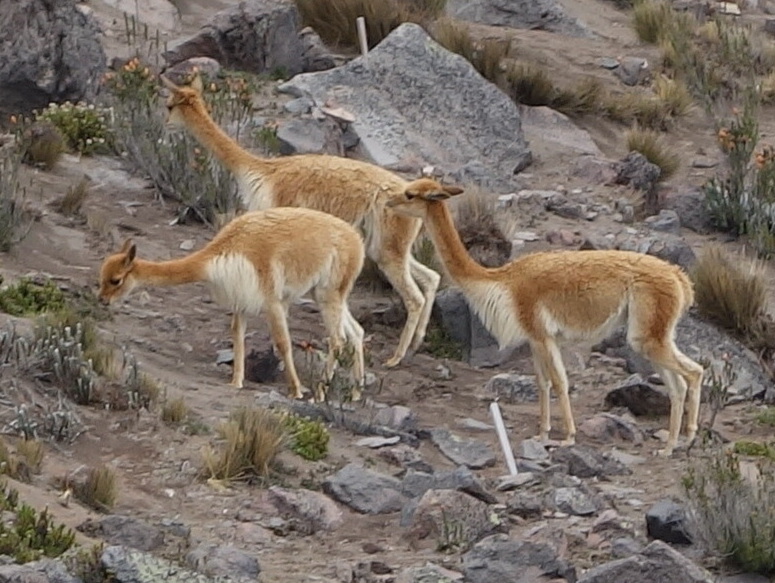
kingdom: Animalia
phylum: Chordata
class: Mammalia
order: Artiodactyla
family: Camelidae
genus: Vicugna
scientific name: Vicugna vicugna
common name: Vicugna
